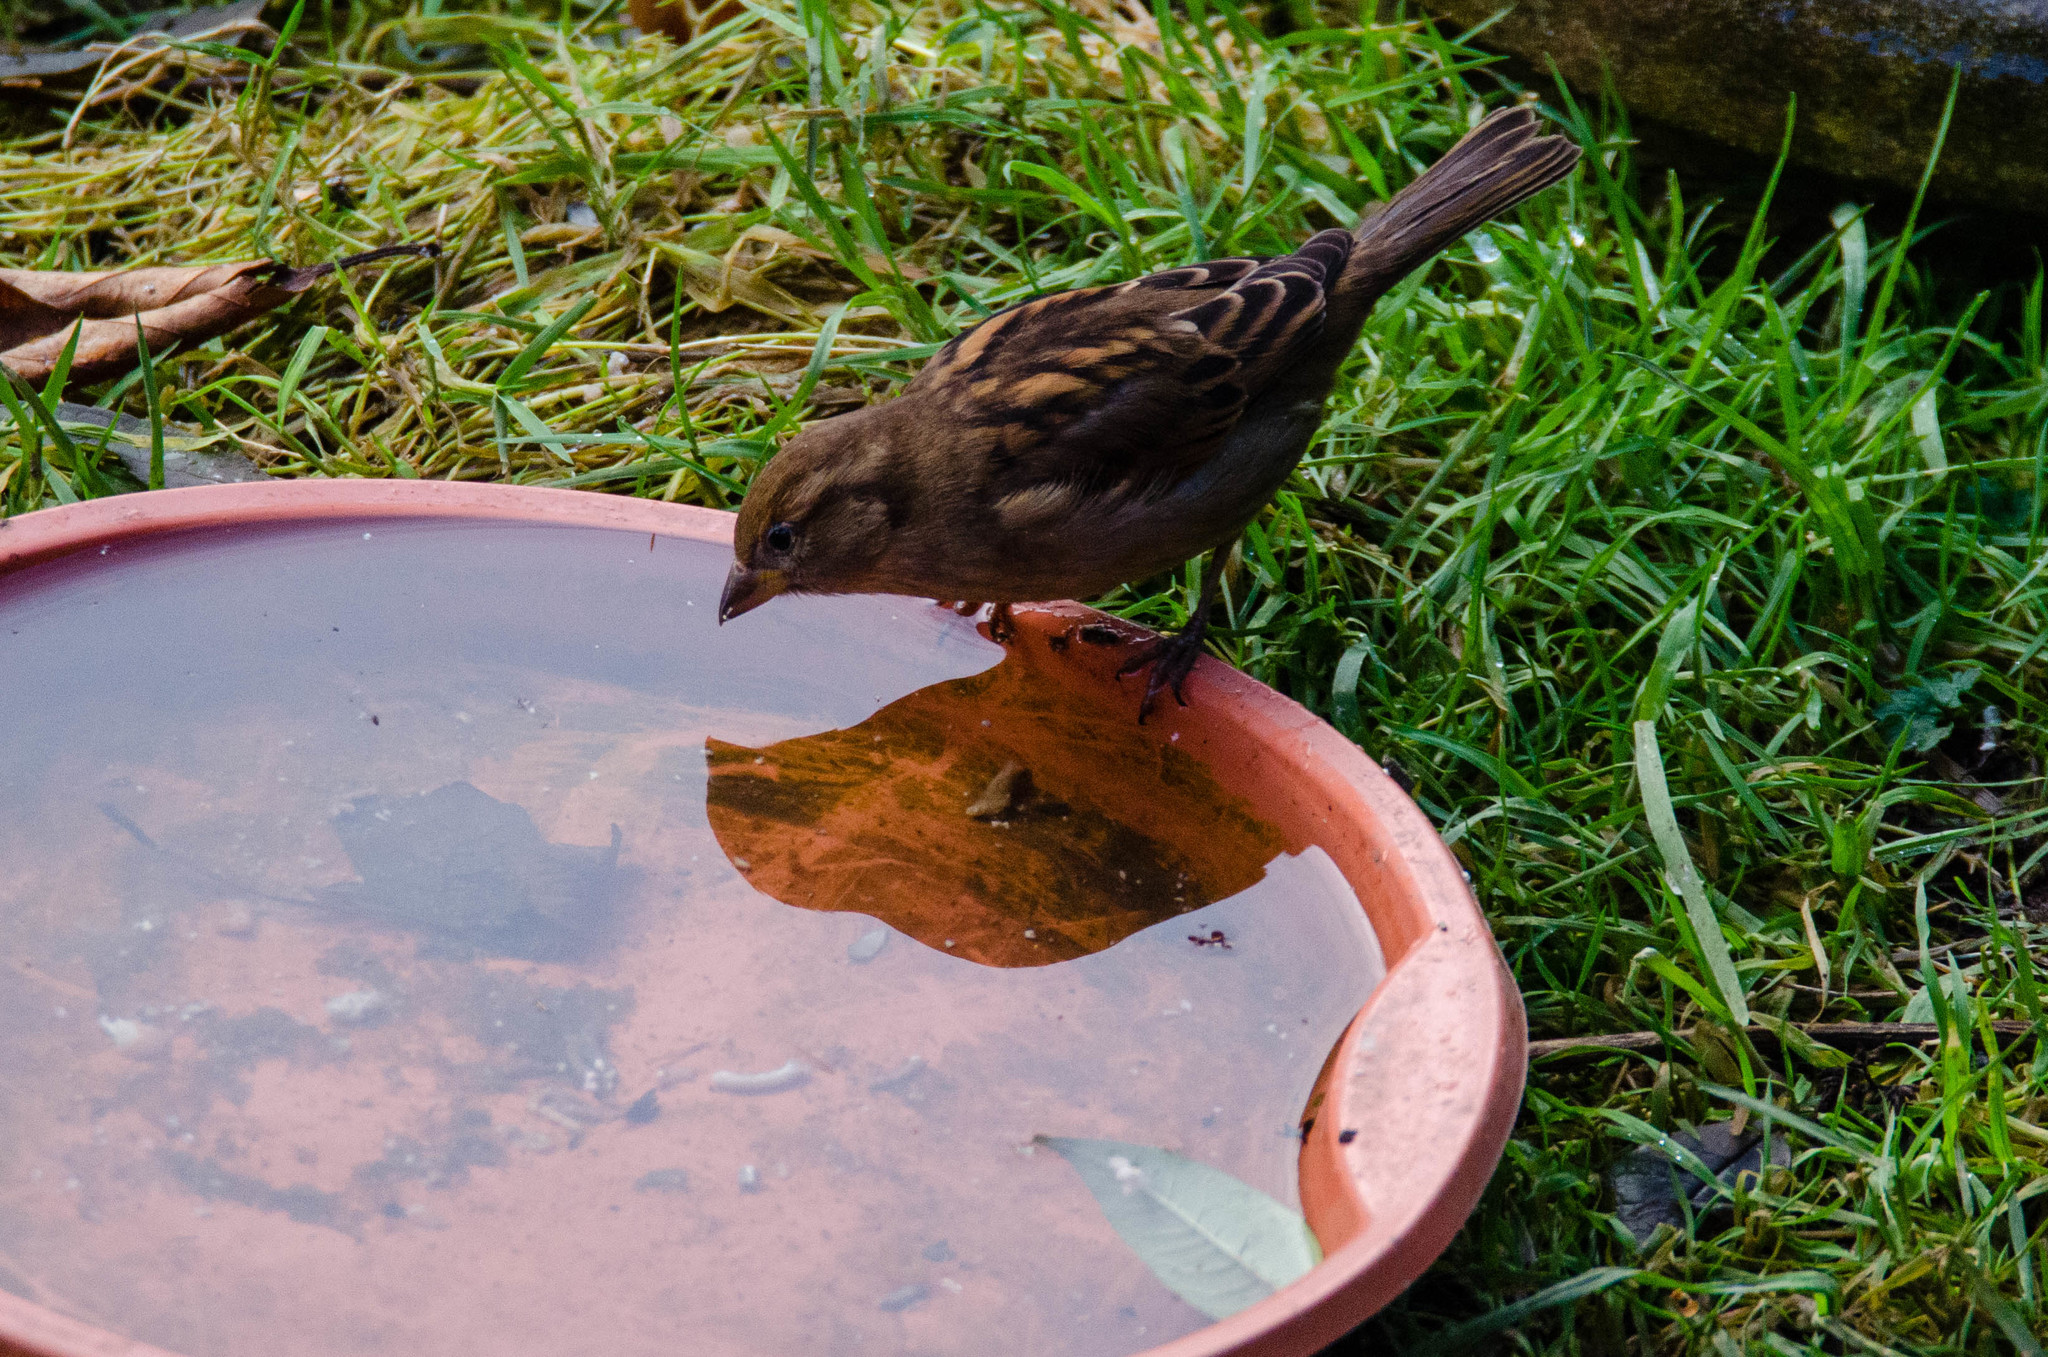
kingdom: Animalia
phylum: Chordata
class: Aves
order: Passeriformes
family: Passeridae
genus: Passer
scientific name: Passer domesticus
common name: House sparrow
